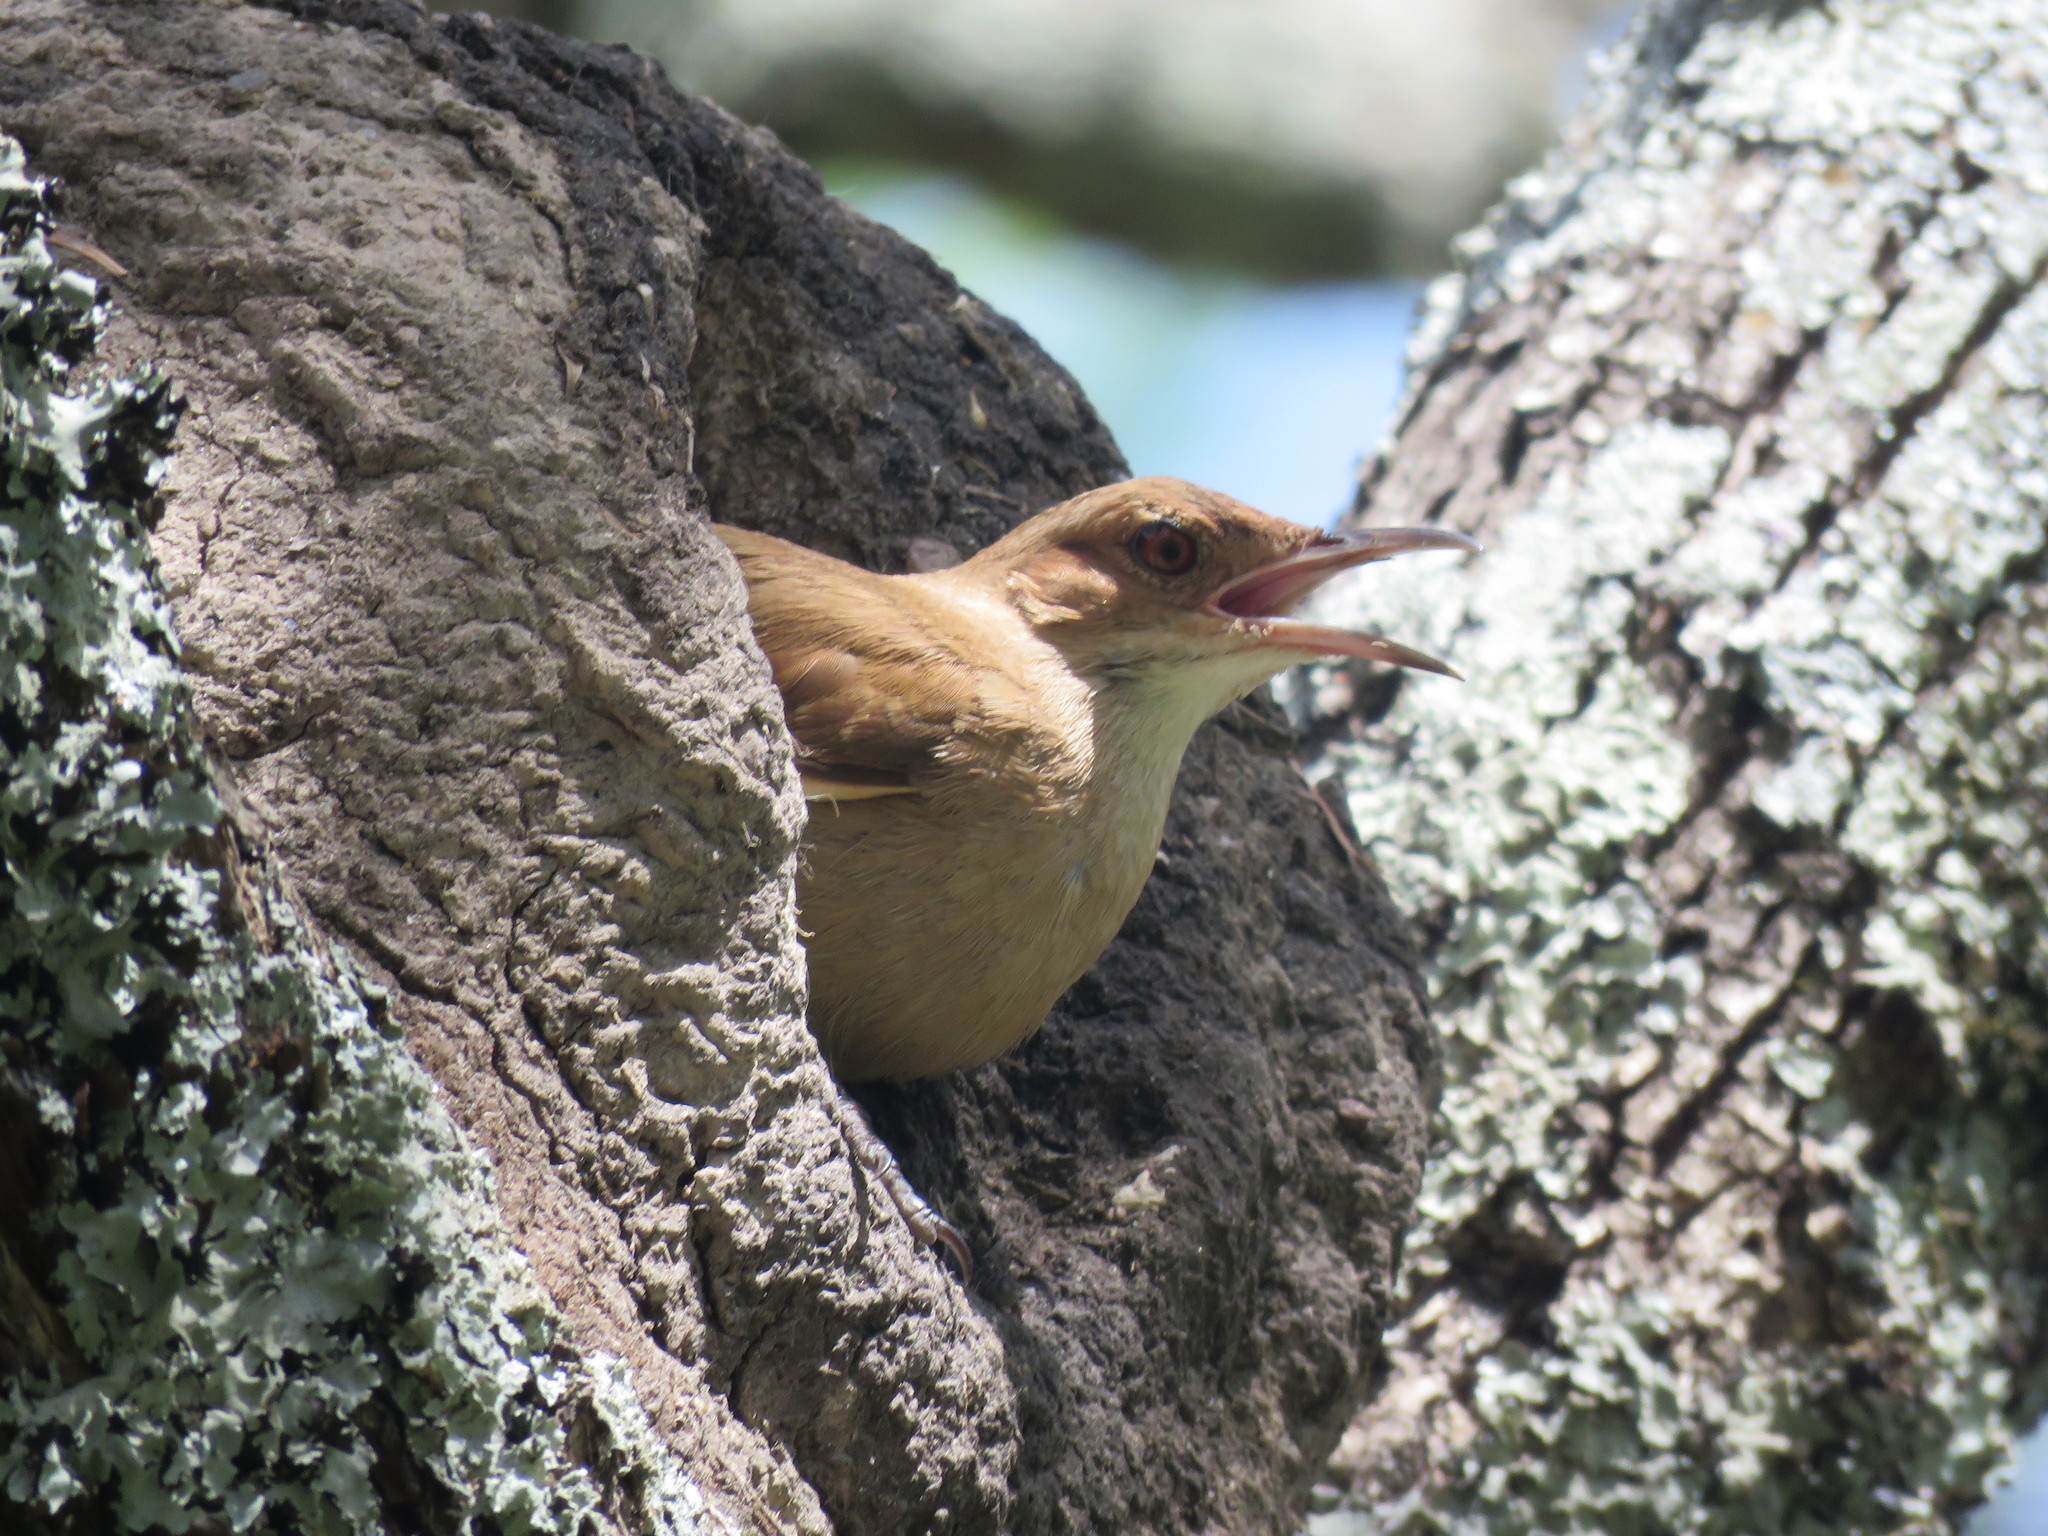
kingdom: Animalia
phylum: Chordata
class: Aves
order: Passeriformes
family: Furnariidae
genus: Furnarius
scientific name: Furnarius rufus
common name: Rufous hornero
